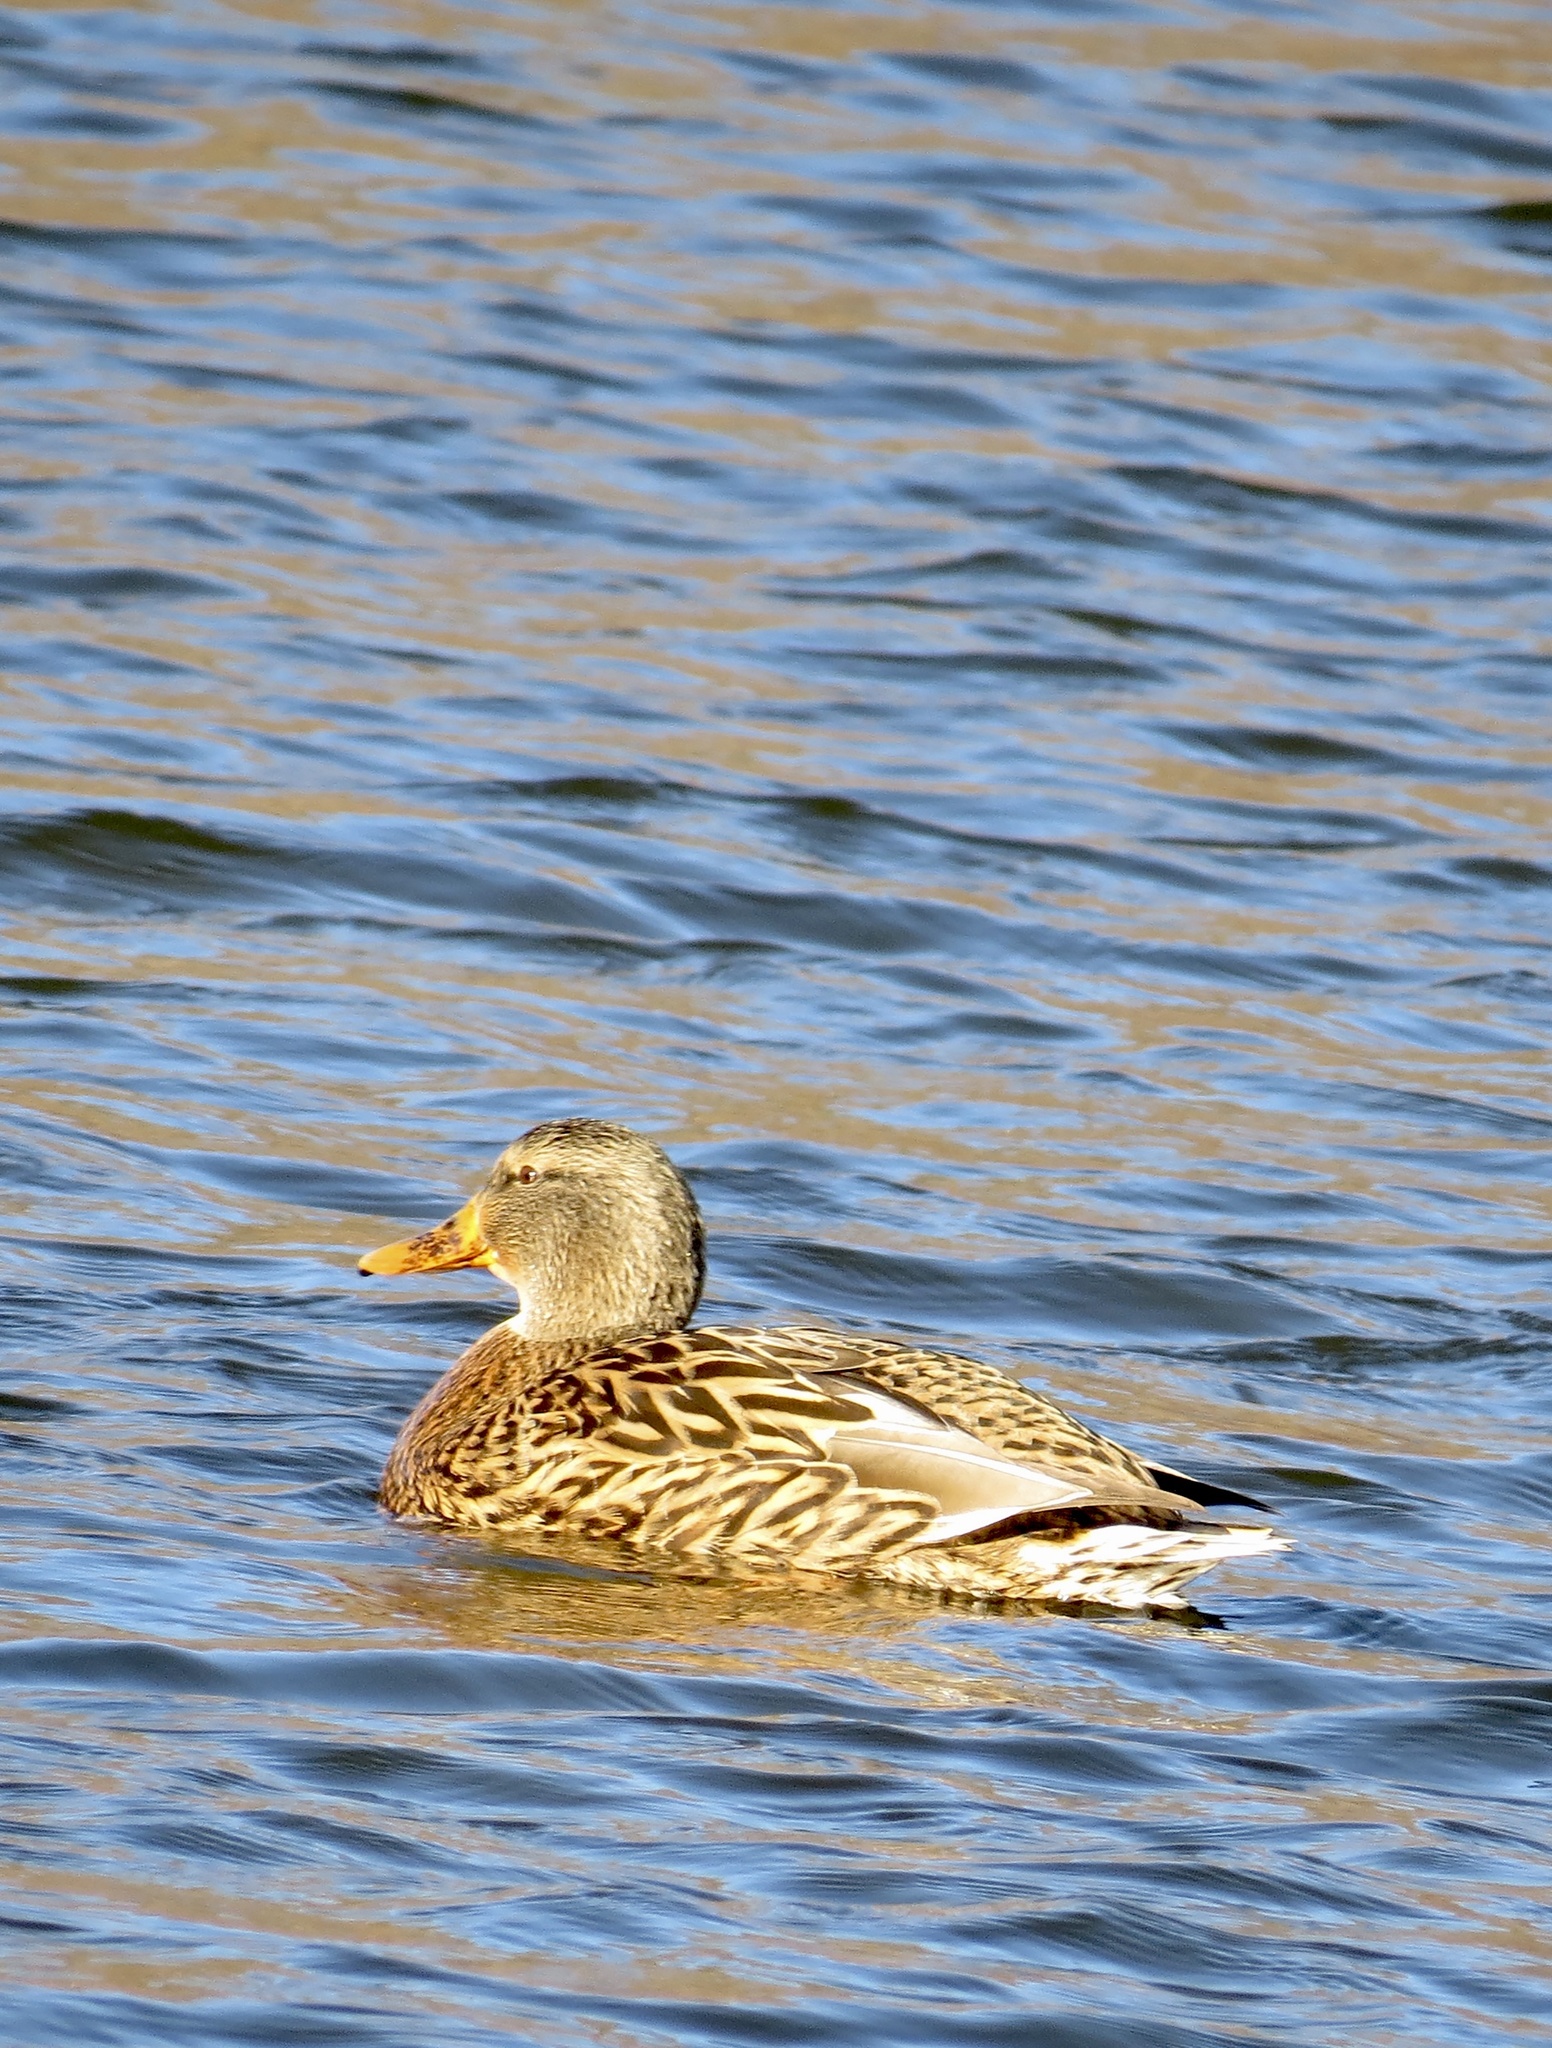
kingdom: Animalia
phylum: Chordata
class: Aves
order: Anseriformes
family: Anatidae
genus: Anas
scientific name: Anas platyrhynchos
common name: Mallard
